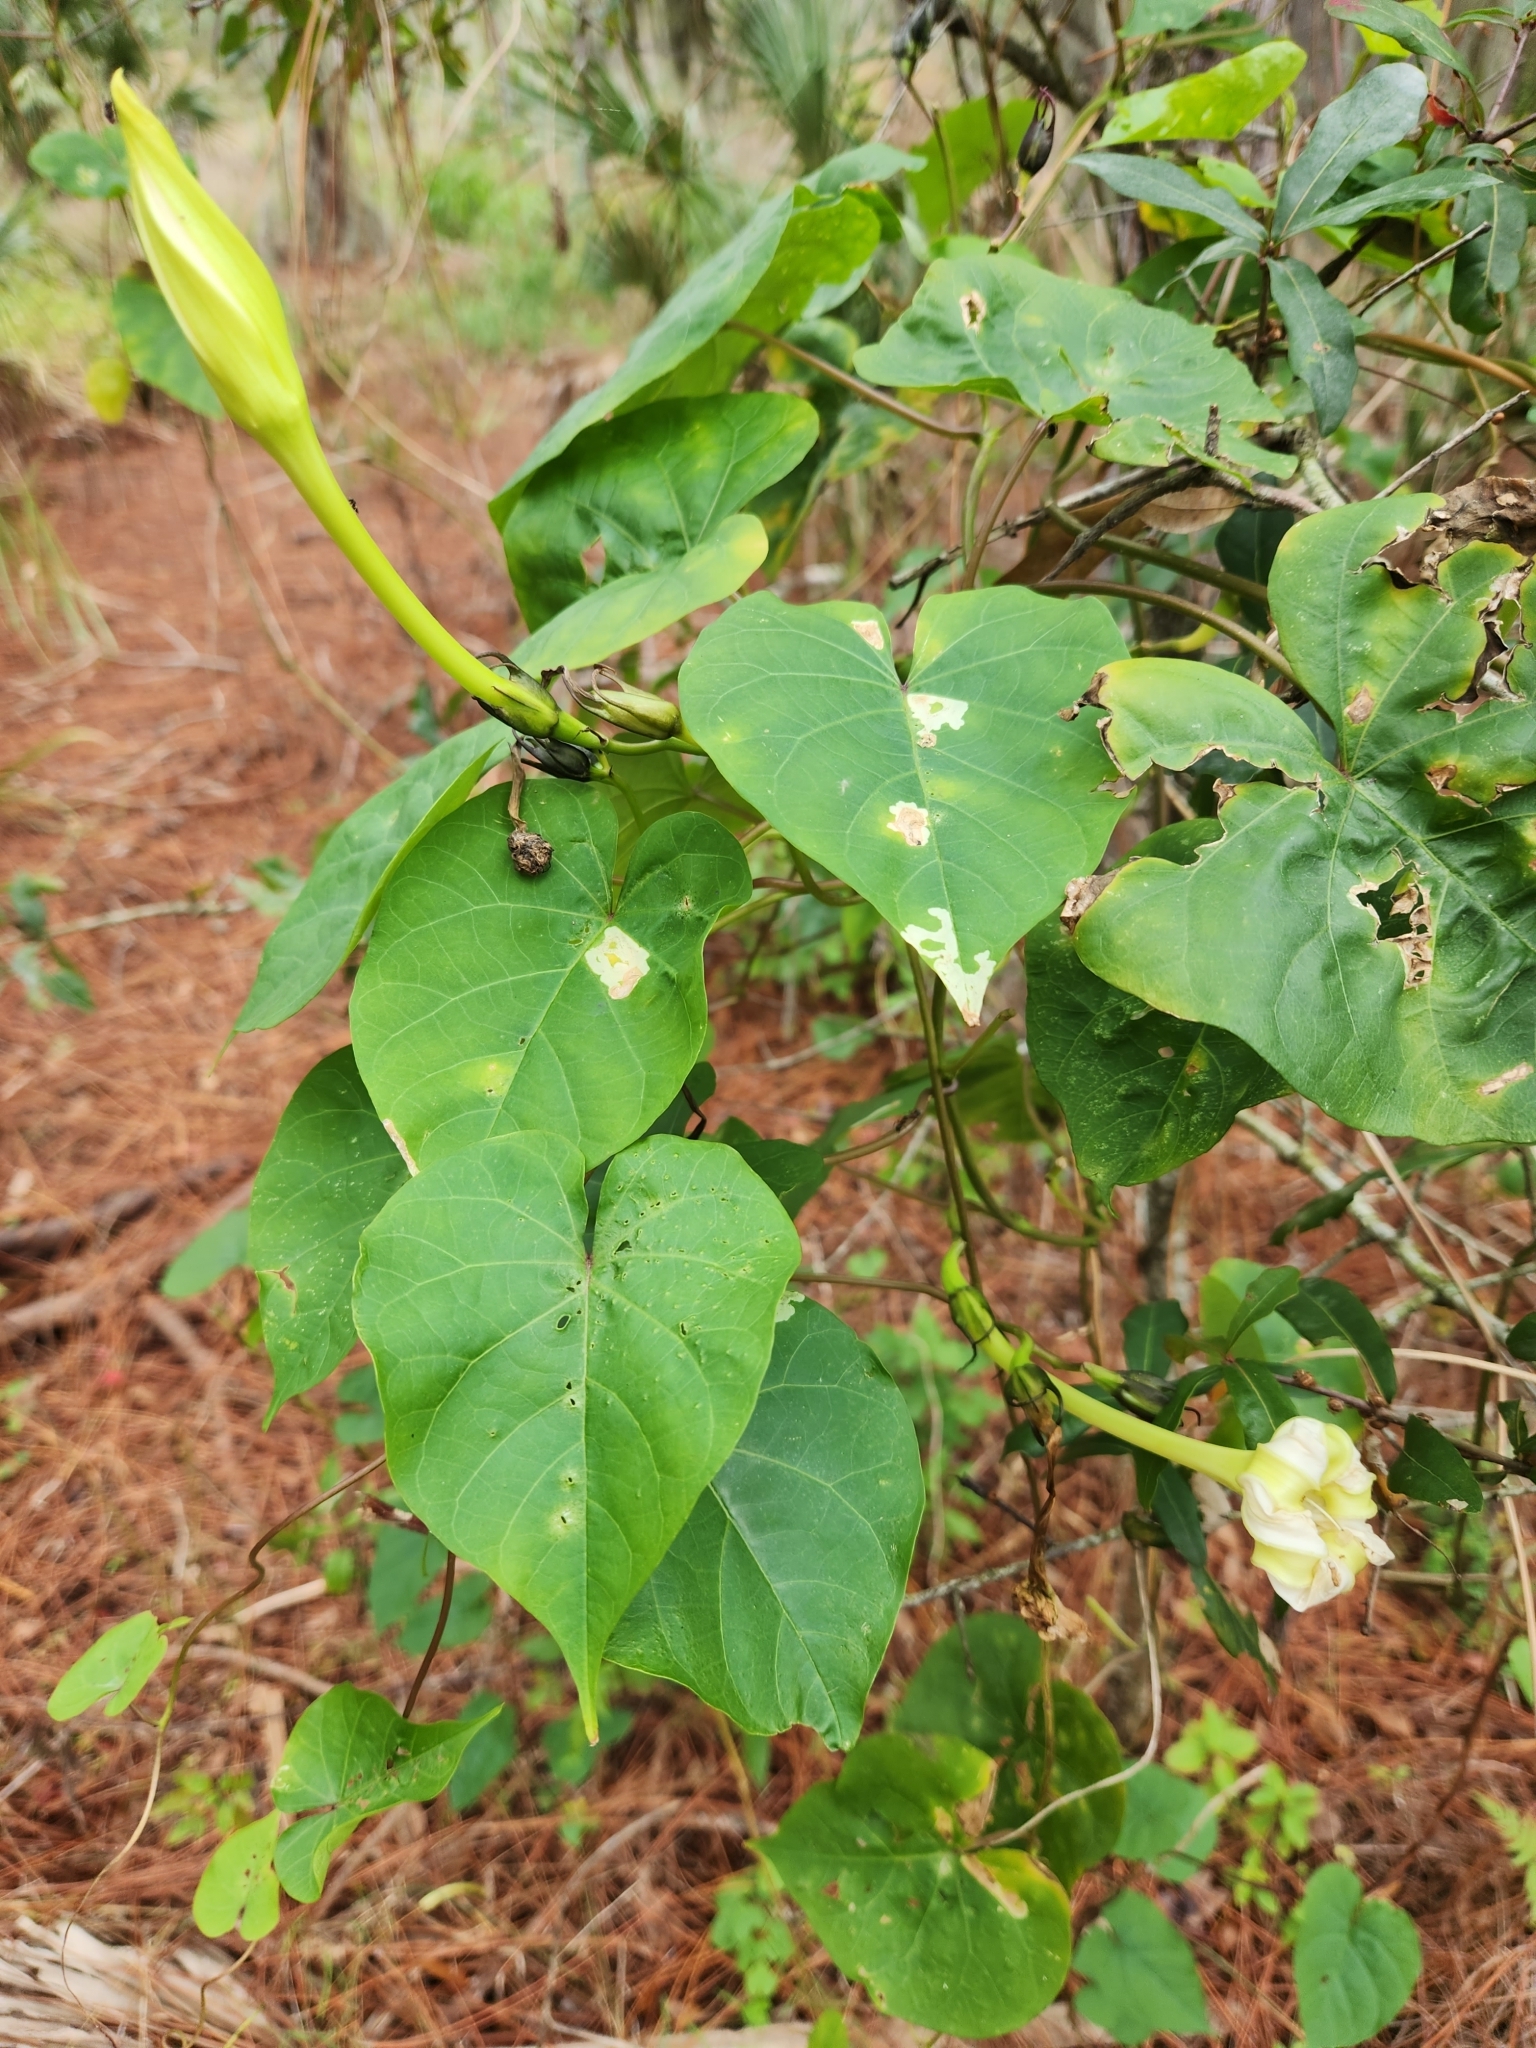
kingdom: Plantae
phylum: Tracheophyta
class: Magnoliopsida
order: Solanales
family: Convolvulaceae
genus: Ipomoea
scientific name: Ipomoea alba
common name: Moonflower
